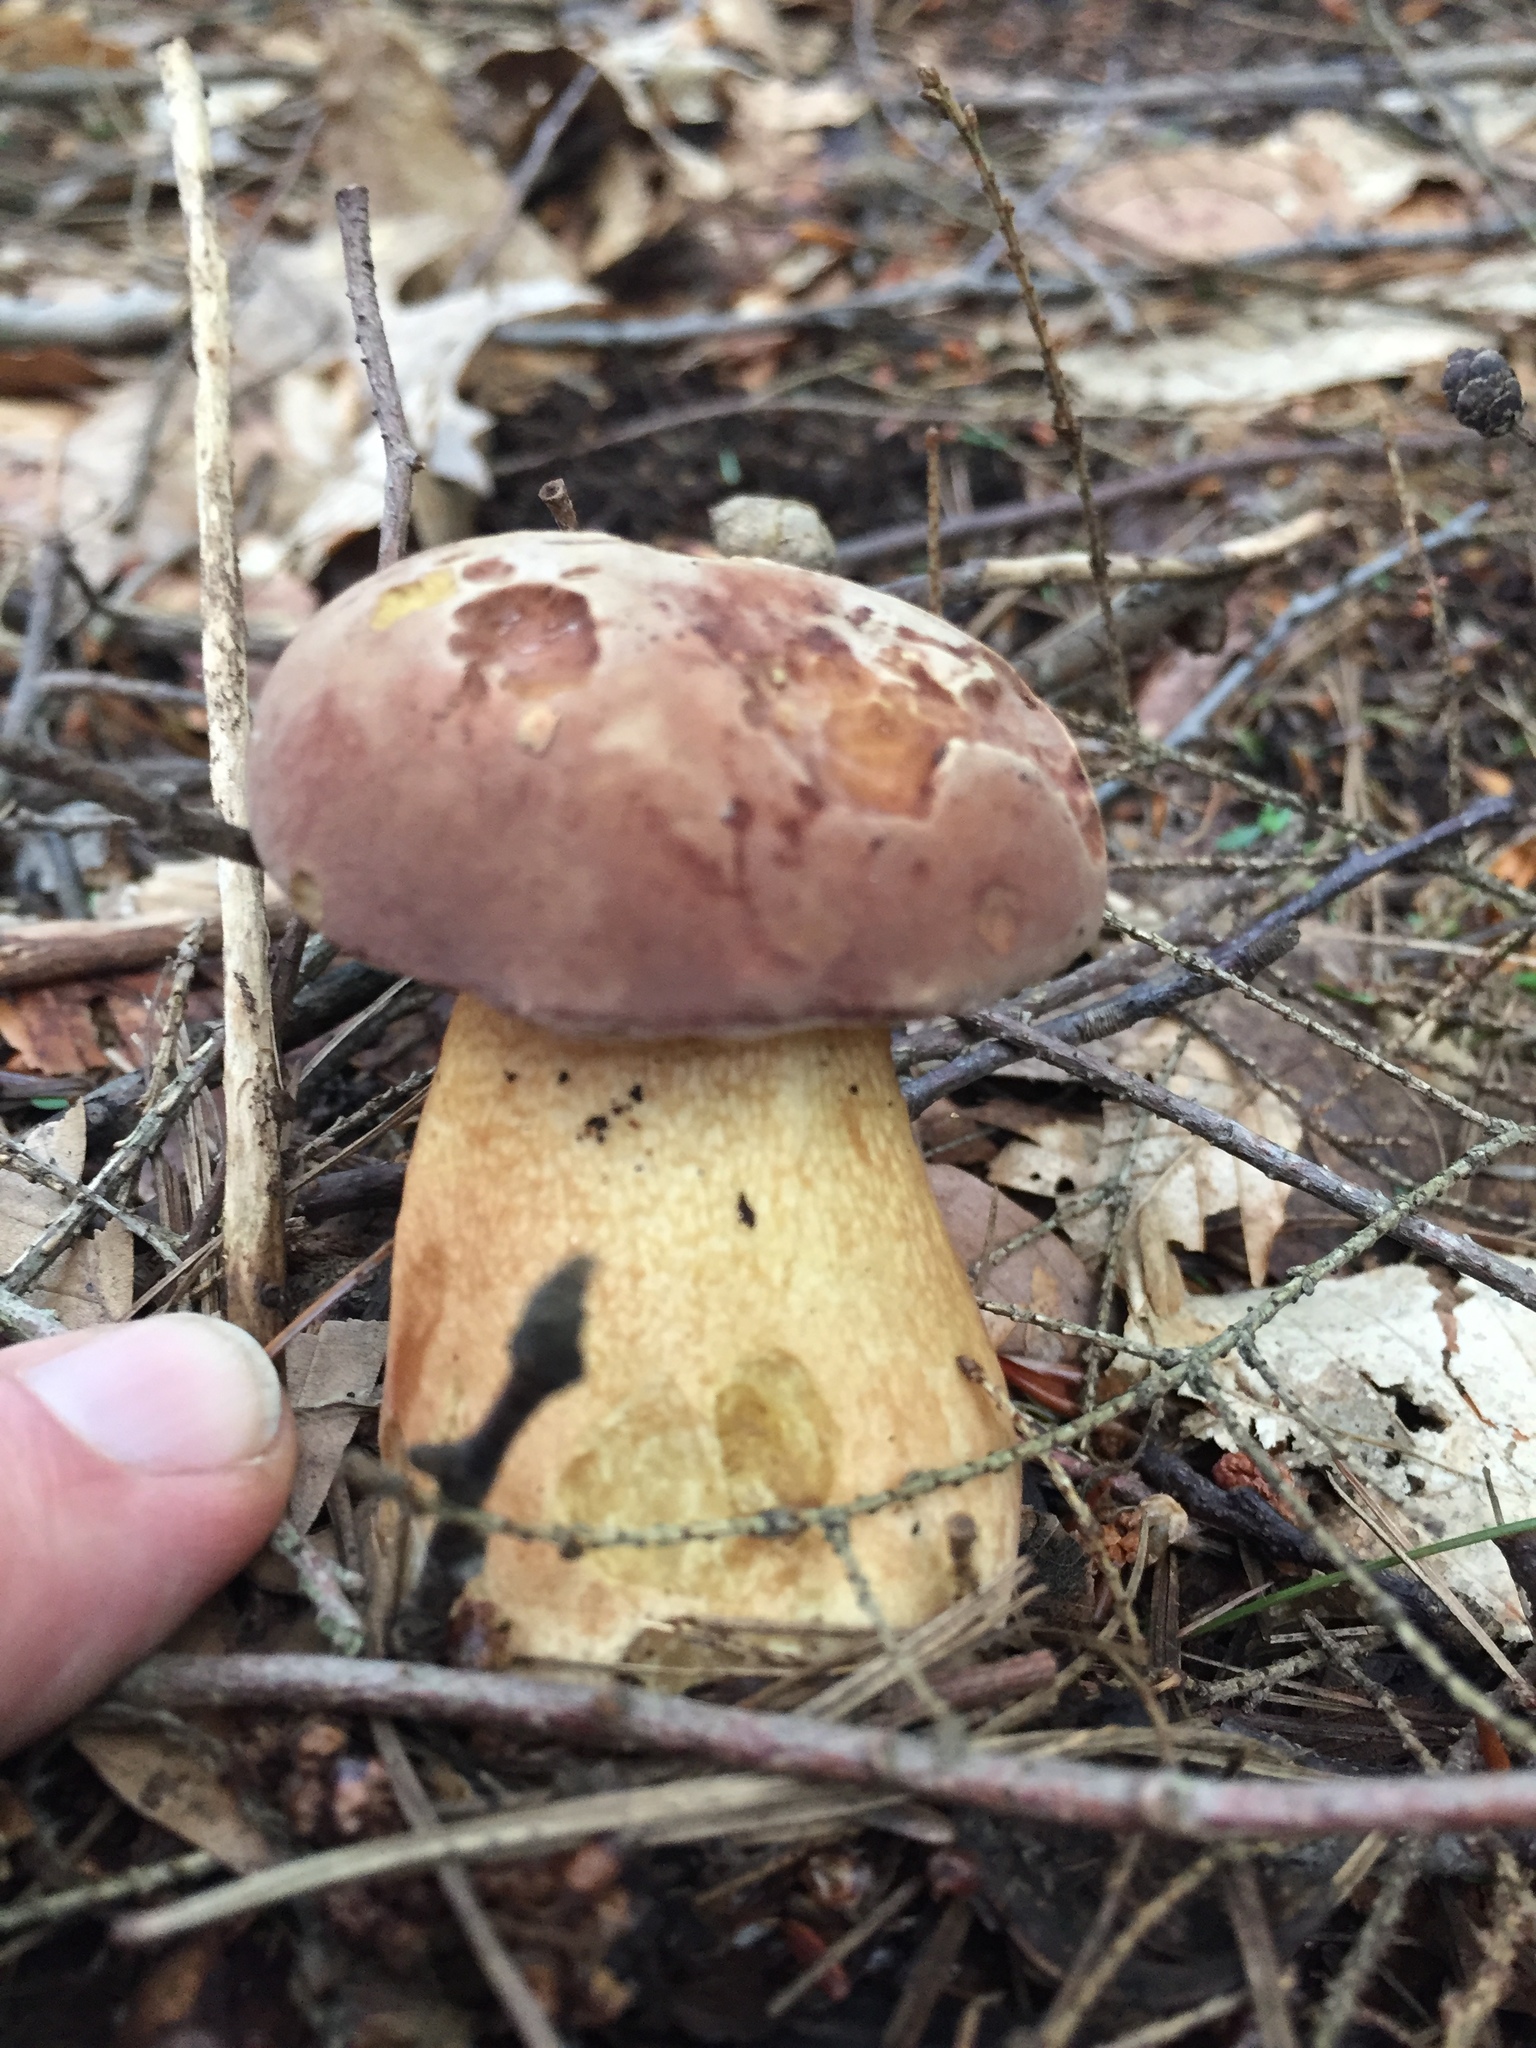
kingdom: Fungi
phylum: Basidiomycota
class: Agaricomycetes
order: Boletales
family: Boletaceae
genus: Tylopilus
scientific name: Tylopilus rubrobrunneus
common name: Reddish brown bitter bolete
